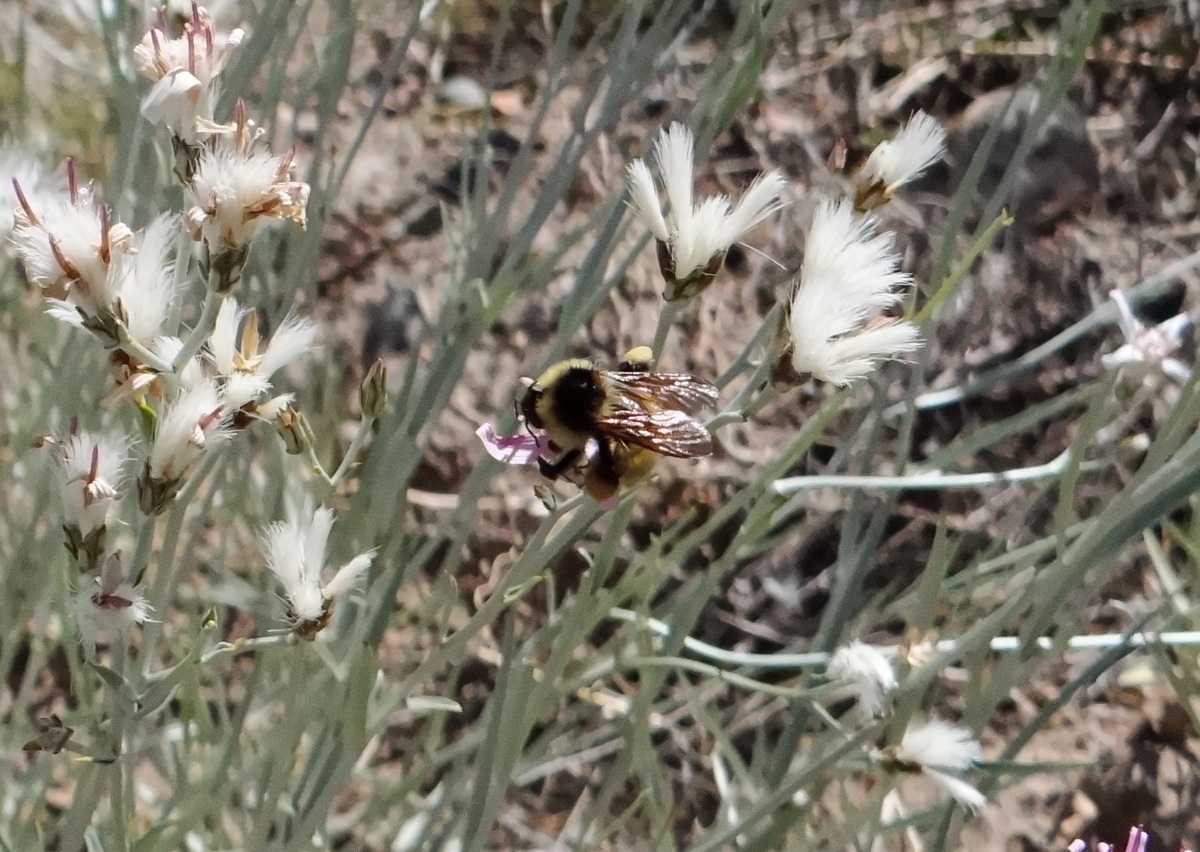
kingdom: Animalia
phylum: Arthropoda
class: Insecta
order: Hymenoptera
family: Apidae
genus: Bombus
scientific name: Bombus opifex
